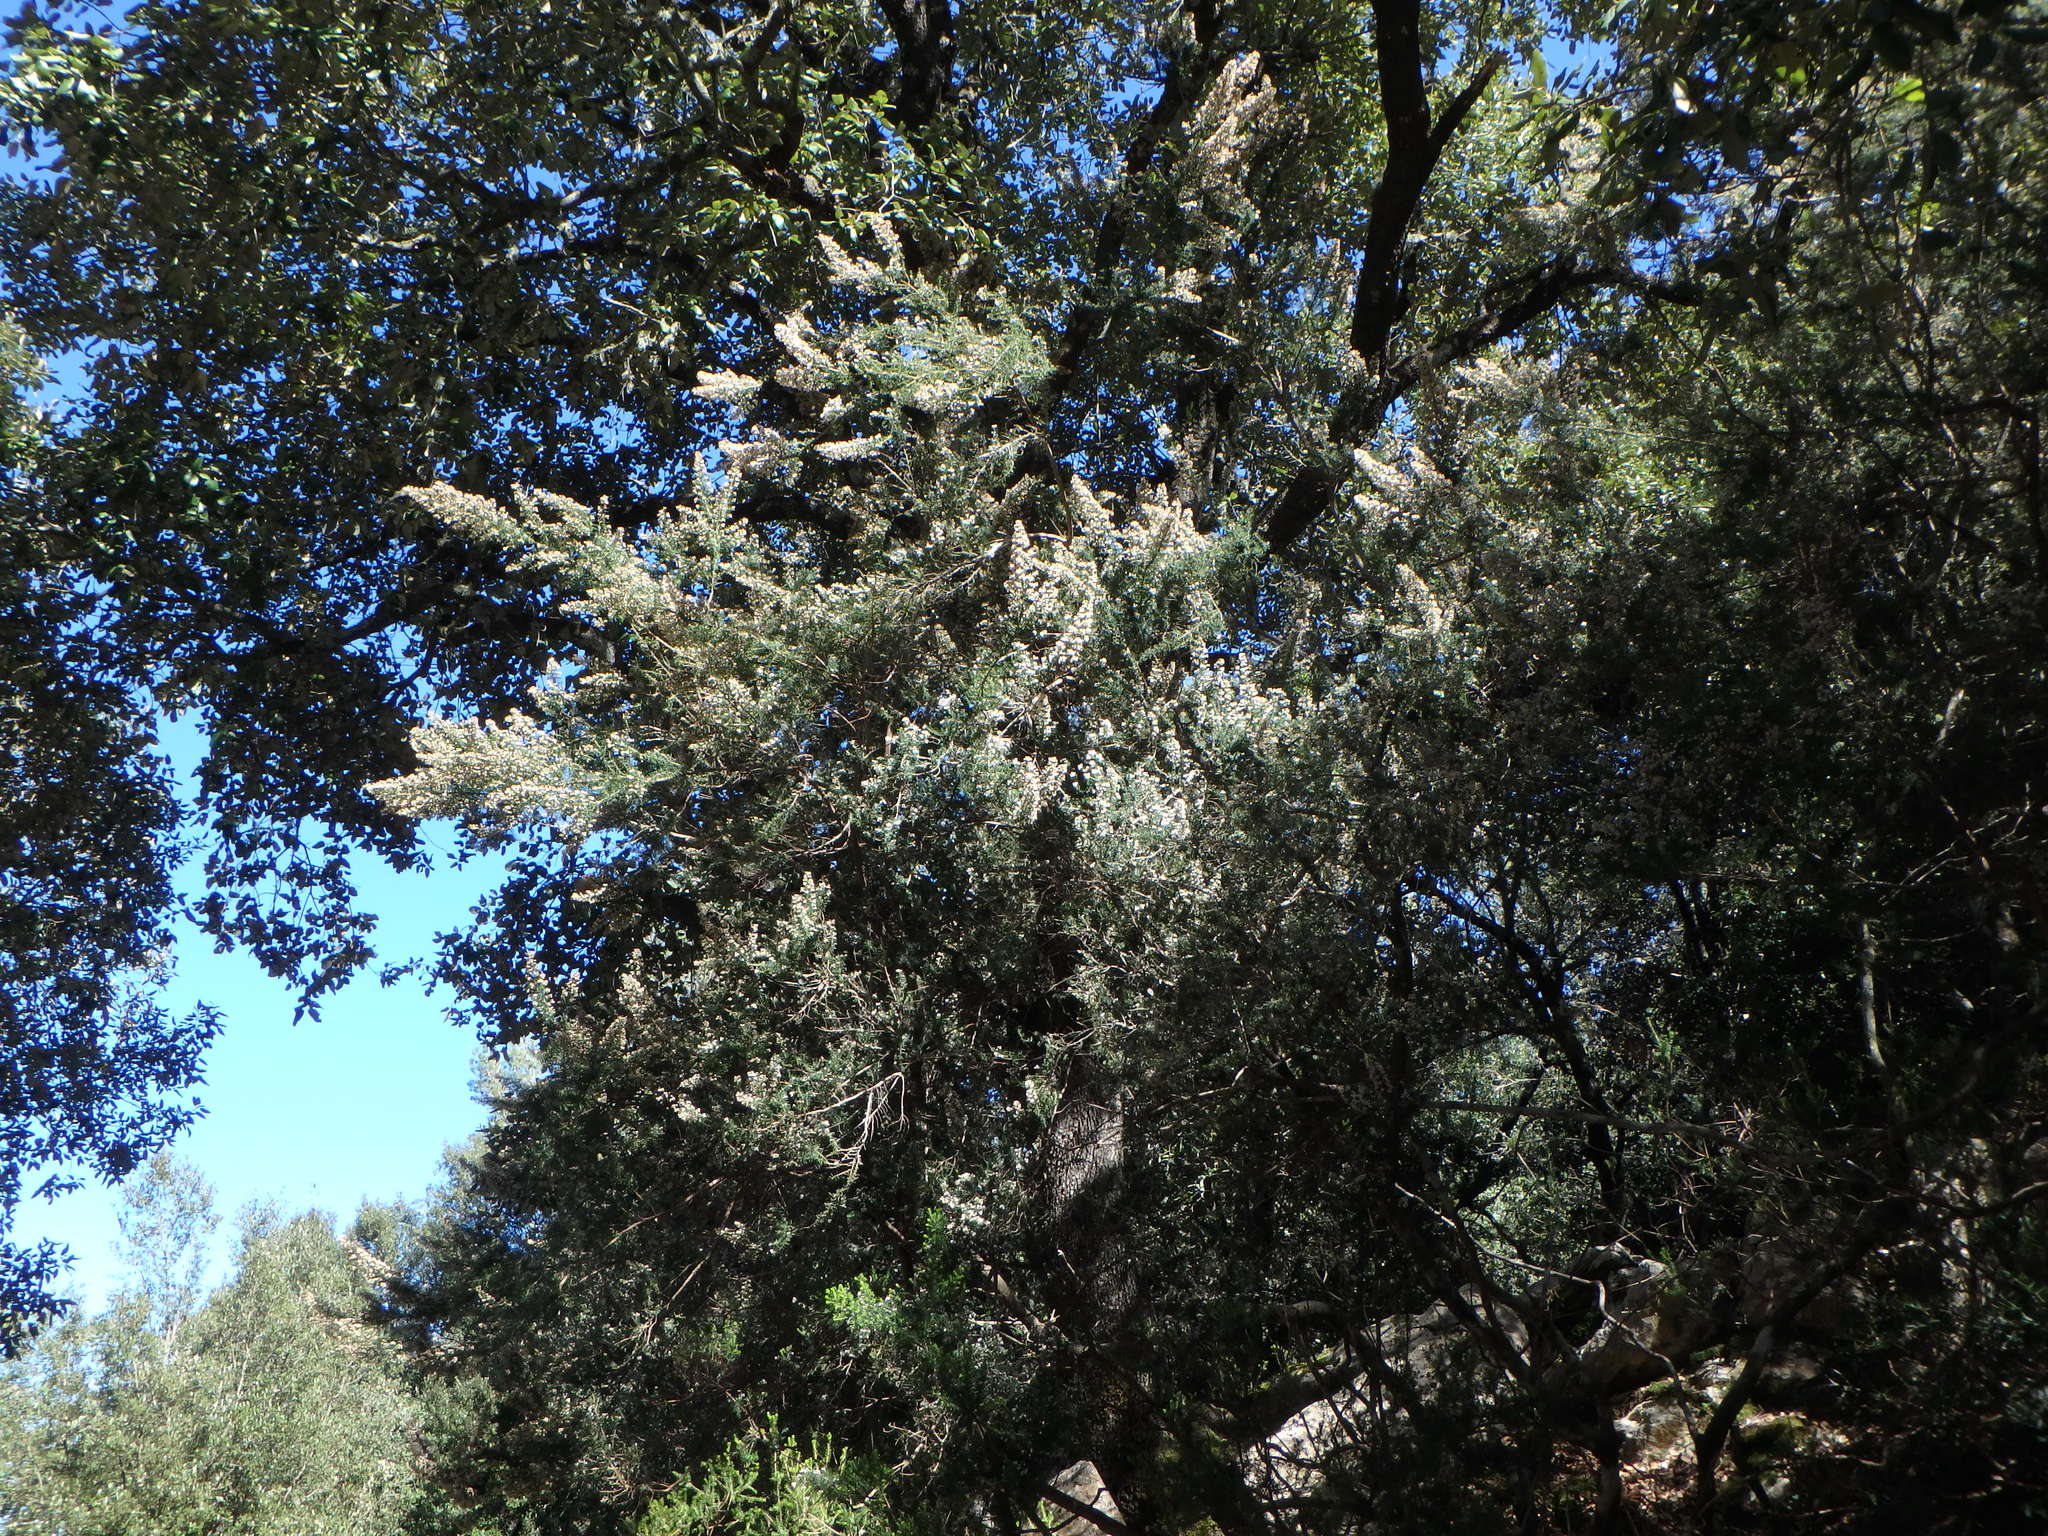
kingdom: Plantae
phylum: Tracheophyta
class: Magnoliopsida
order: Ericales
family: Ericaceae
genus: Erica
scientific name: Erica arborea
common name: Tree heath
